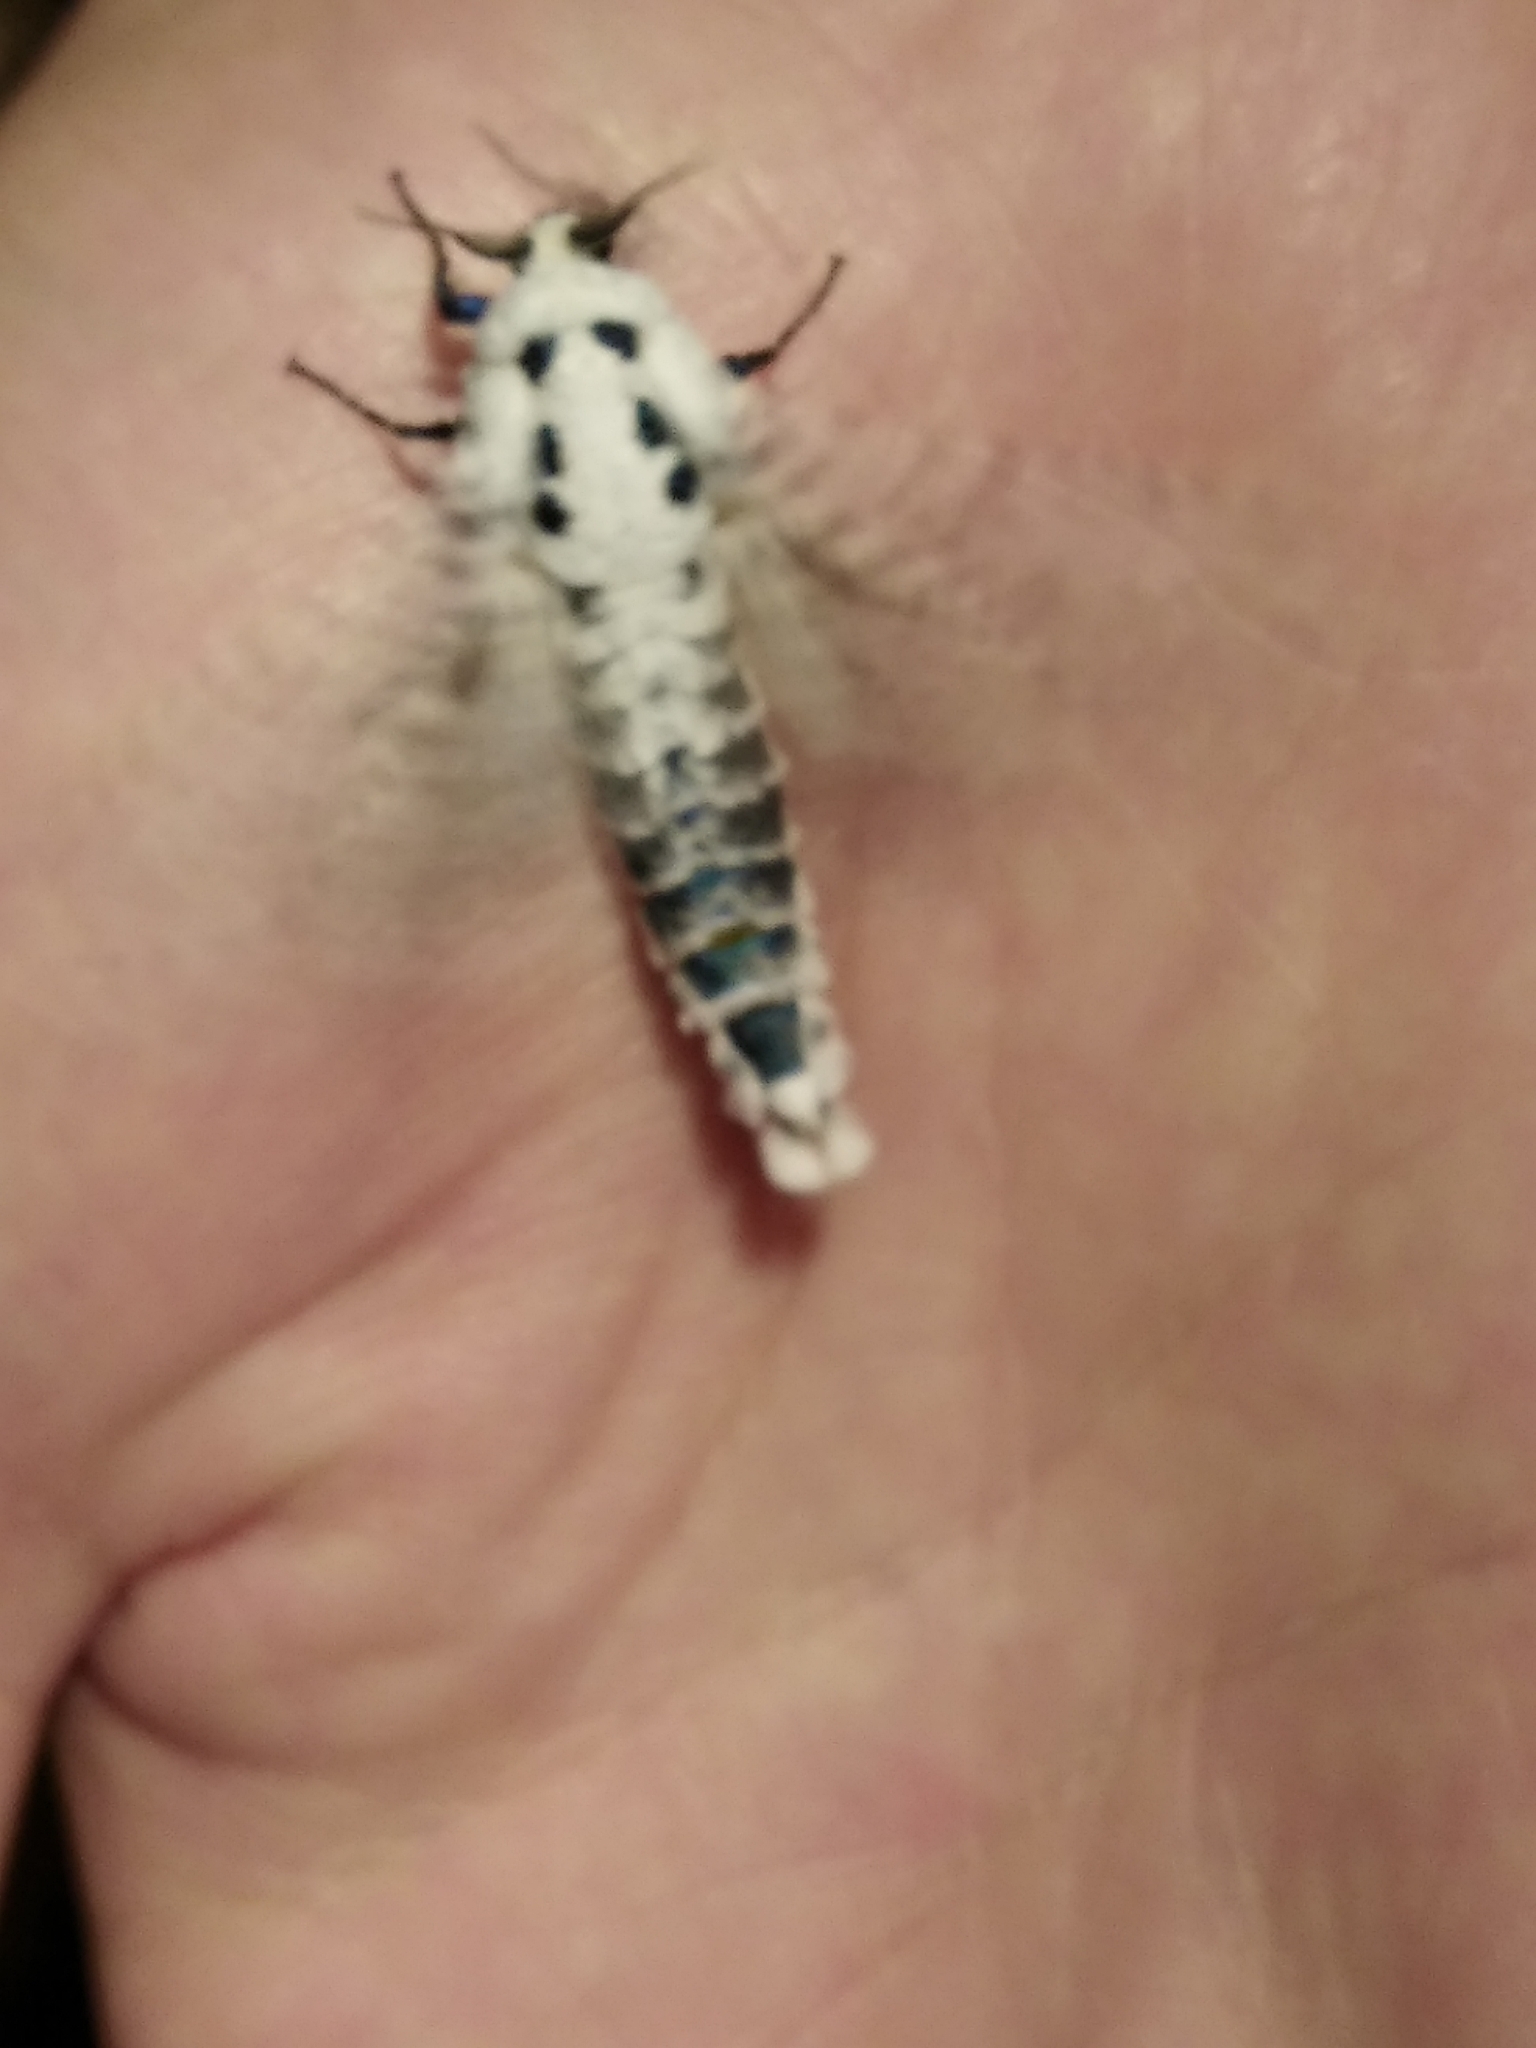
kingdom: Animalia
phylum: Arthropoda
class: Insecta
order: Lepidoptera
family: Cossidae
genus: Zeuzera
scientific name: Zeuzera pyrina
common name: Leopard moth
